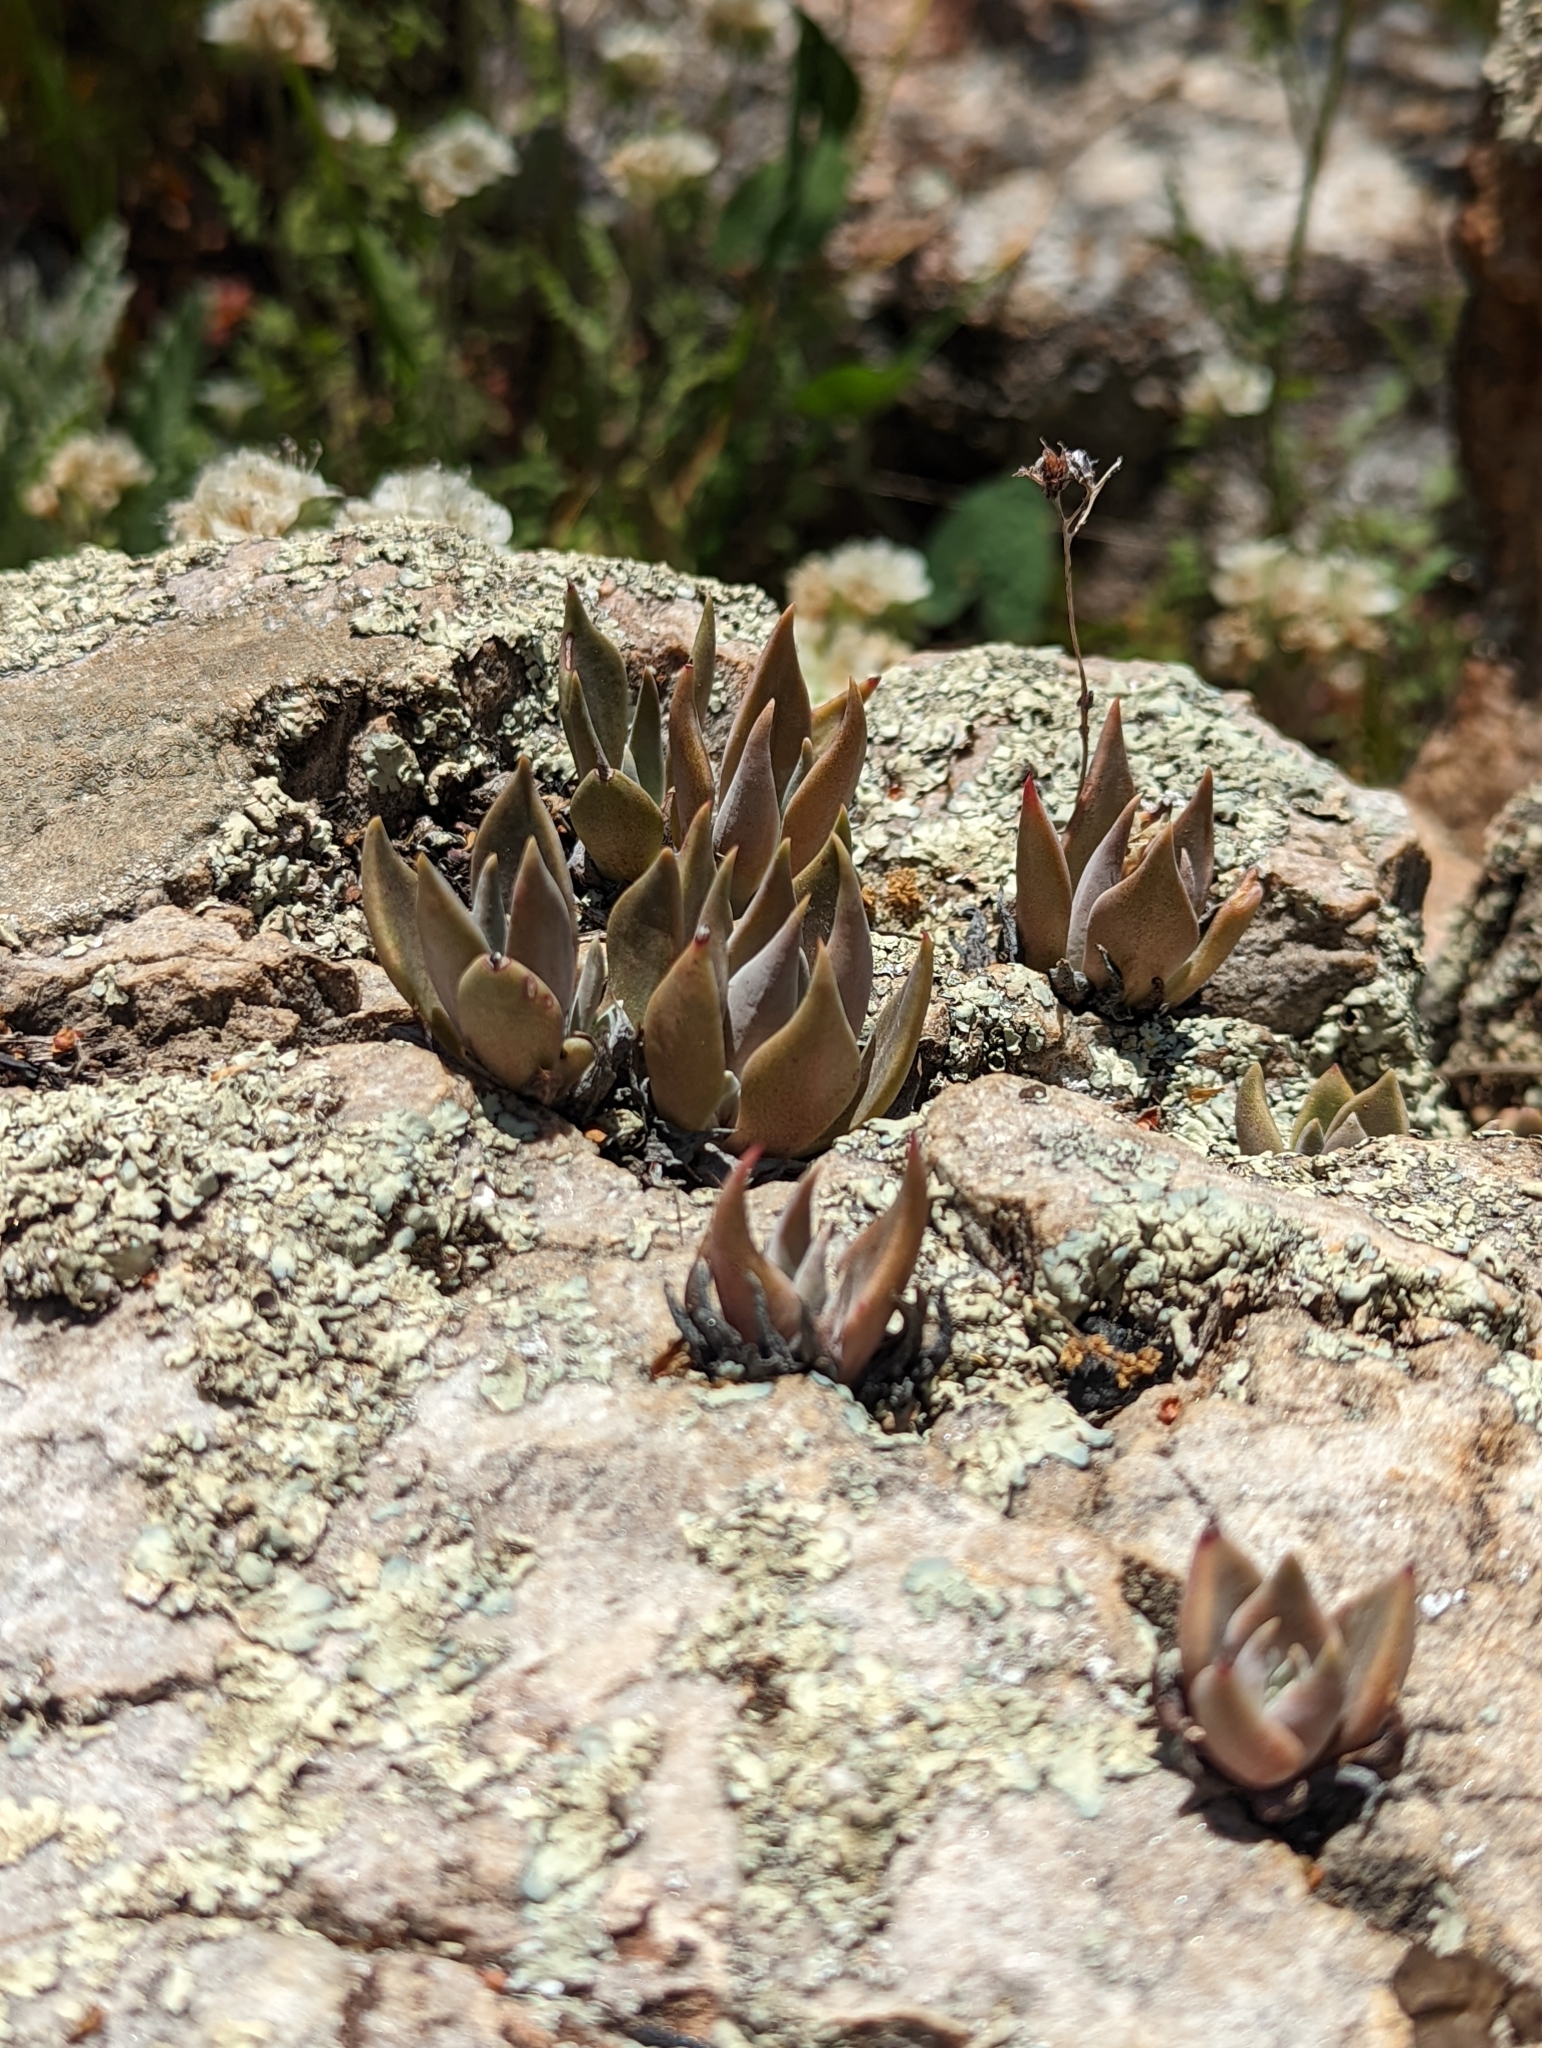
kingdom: Plantae
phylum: Tracheophyta
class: Magnoliopsida
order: Saxifragales
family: Crassulaceae
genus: Dudleya
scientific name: Dudleya abramsii
